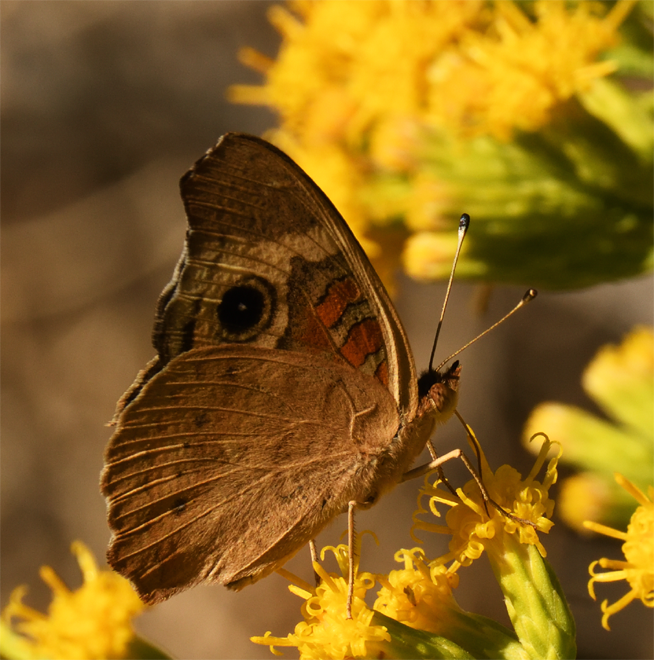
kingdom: Animalia
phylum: Arthropoda
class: Insecta
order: Lepidoptera
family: Nymphalidae
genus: Junonia
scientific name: Junonia grisea
